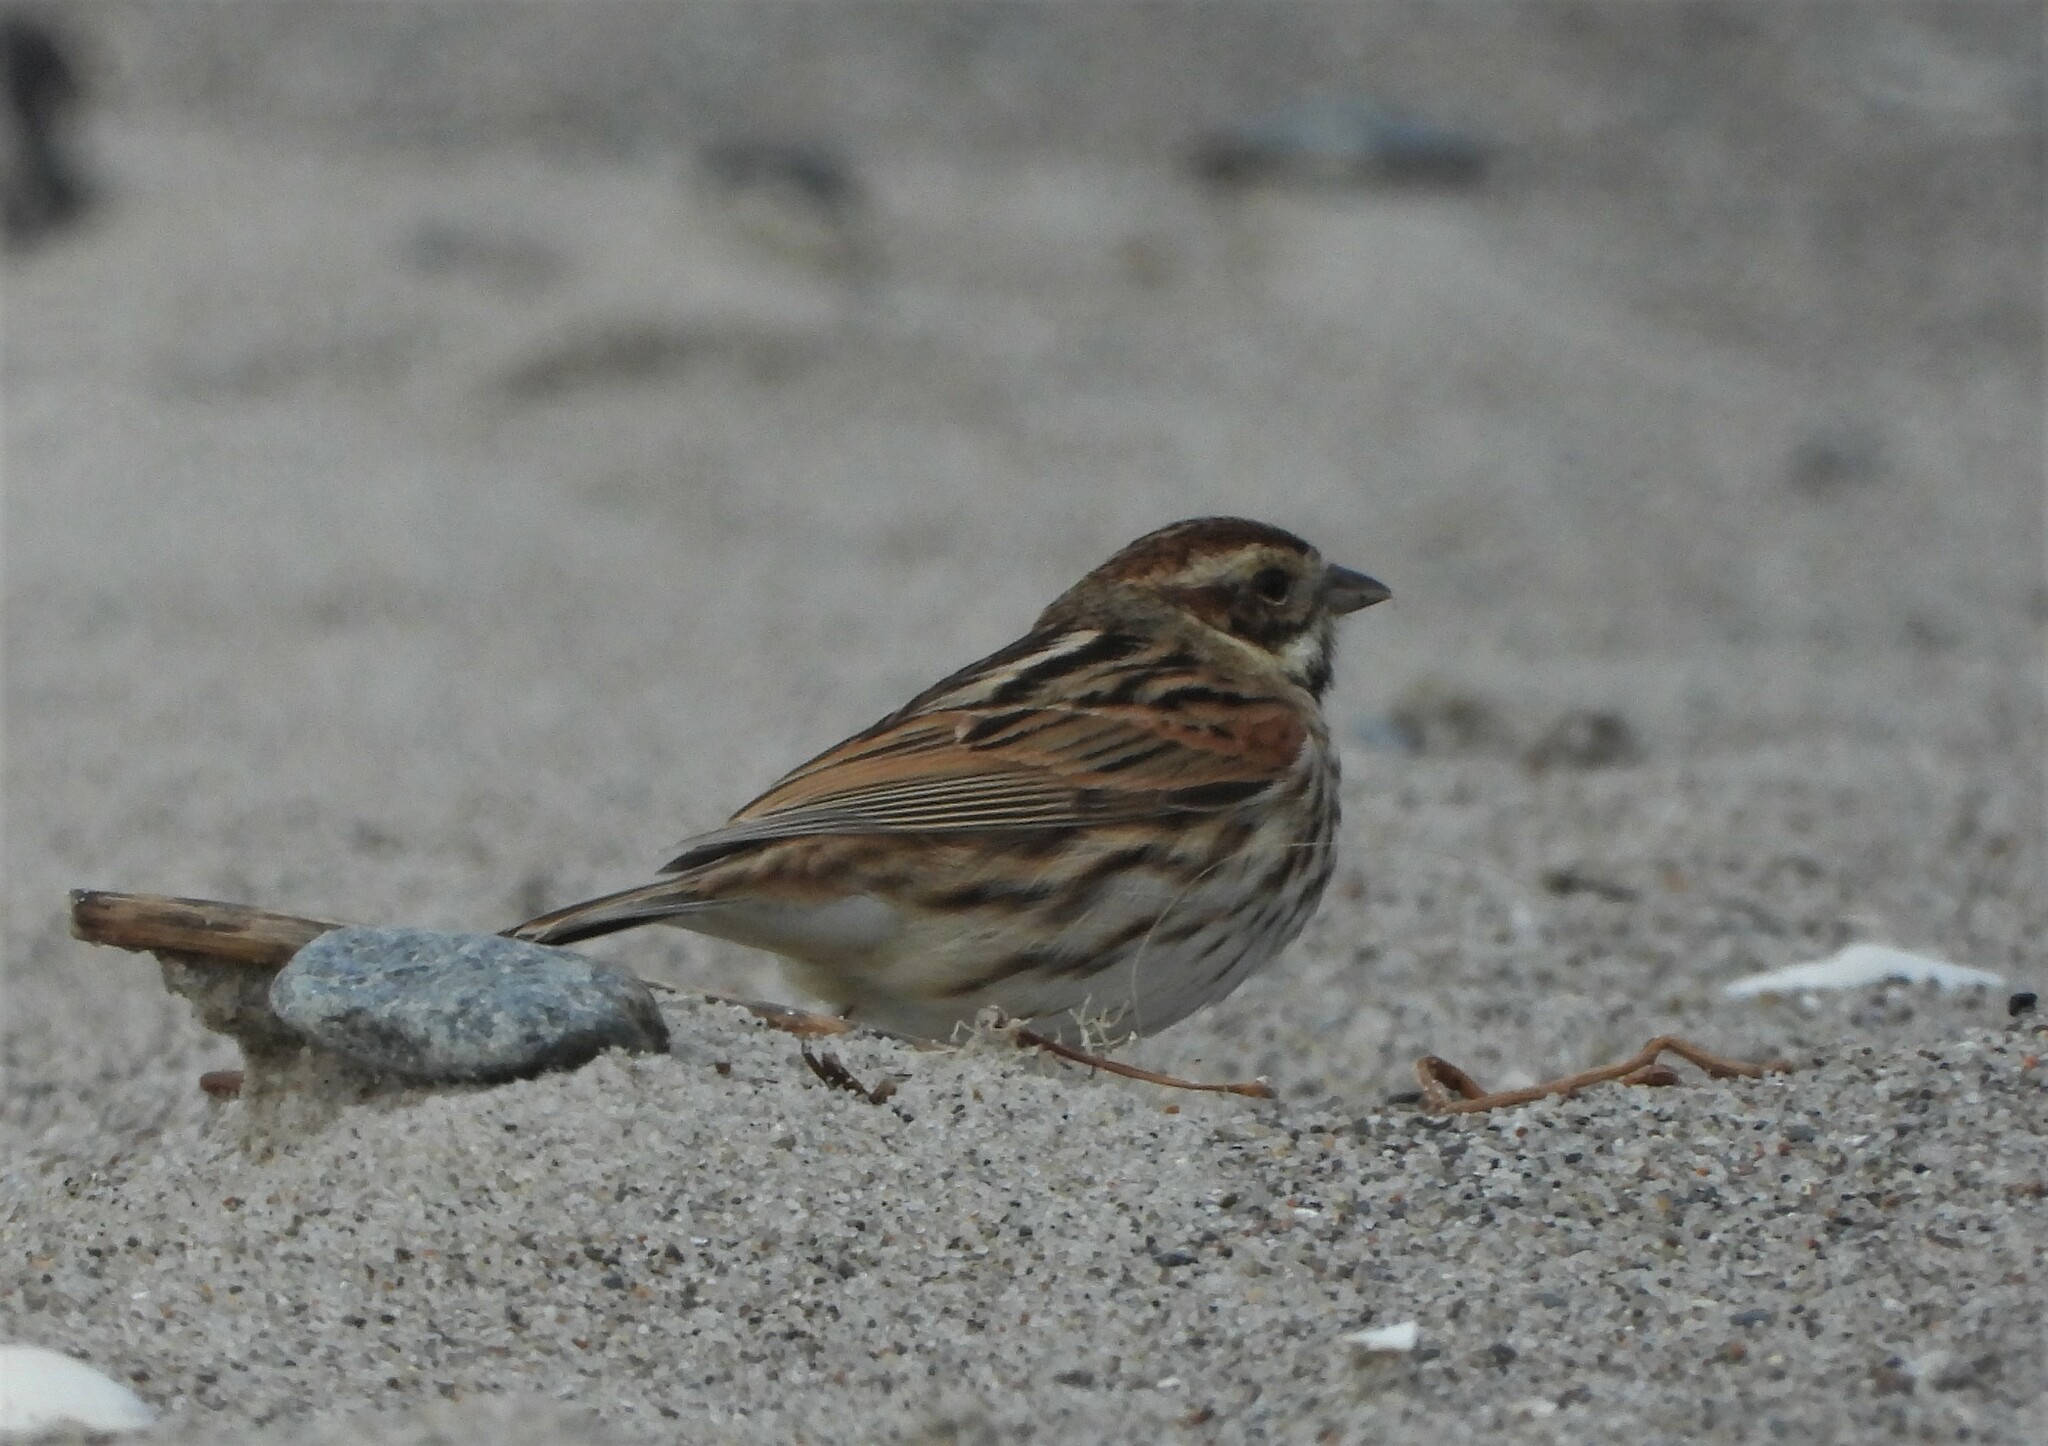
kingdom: Animalia
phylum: Chordata
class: Aves
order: Passeriformes
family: Emberizidae
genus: Emberiza
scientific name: Emberiza schoeniclus
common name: Reed bunting
